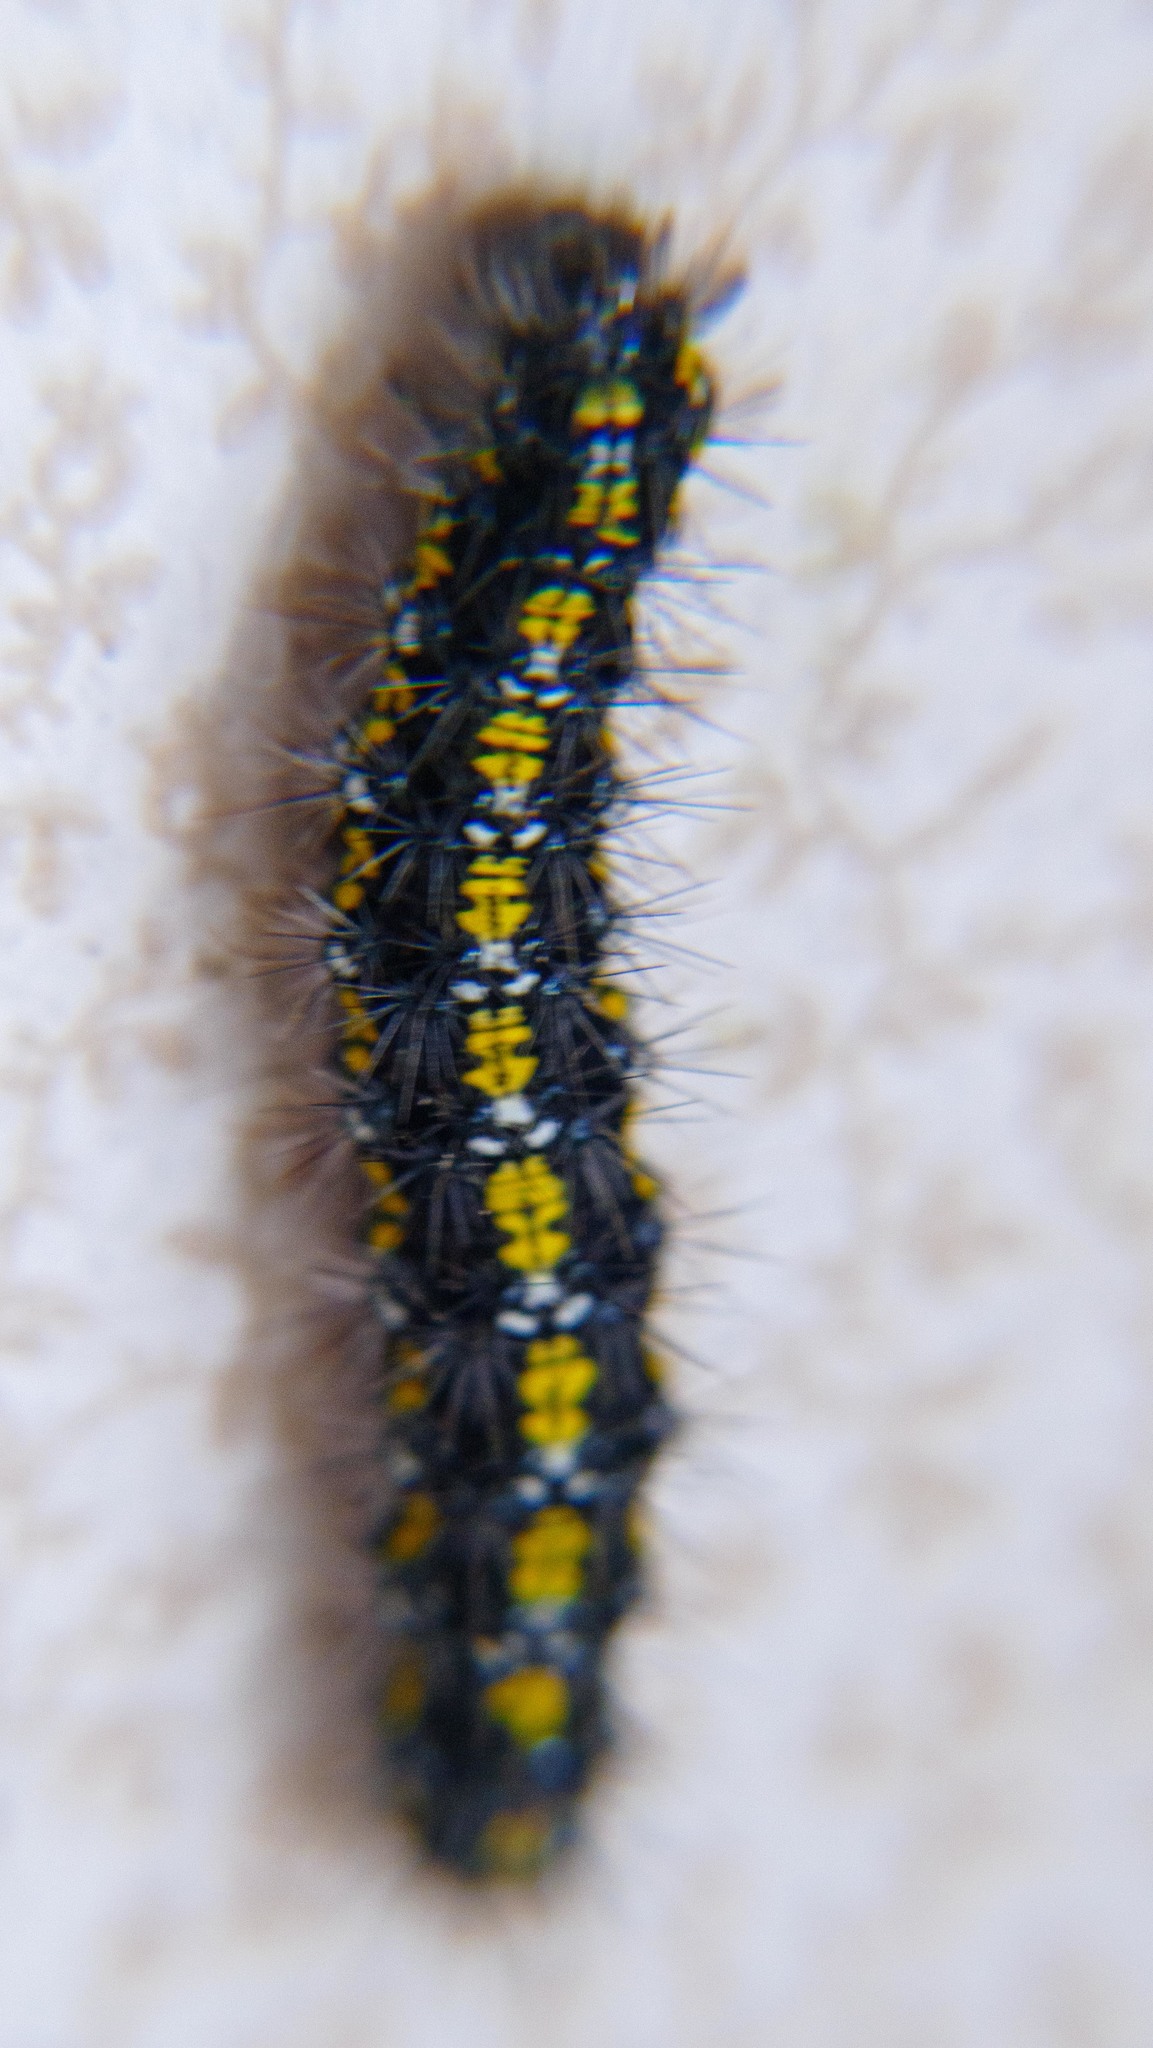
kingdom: Animalia
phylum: Arthropoda
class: Insecta
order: Lepidoptera
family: Erebidae
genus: Callimorpha
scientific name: Callimorpha dominula
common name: Scarlet tiger
